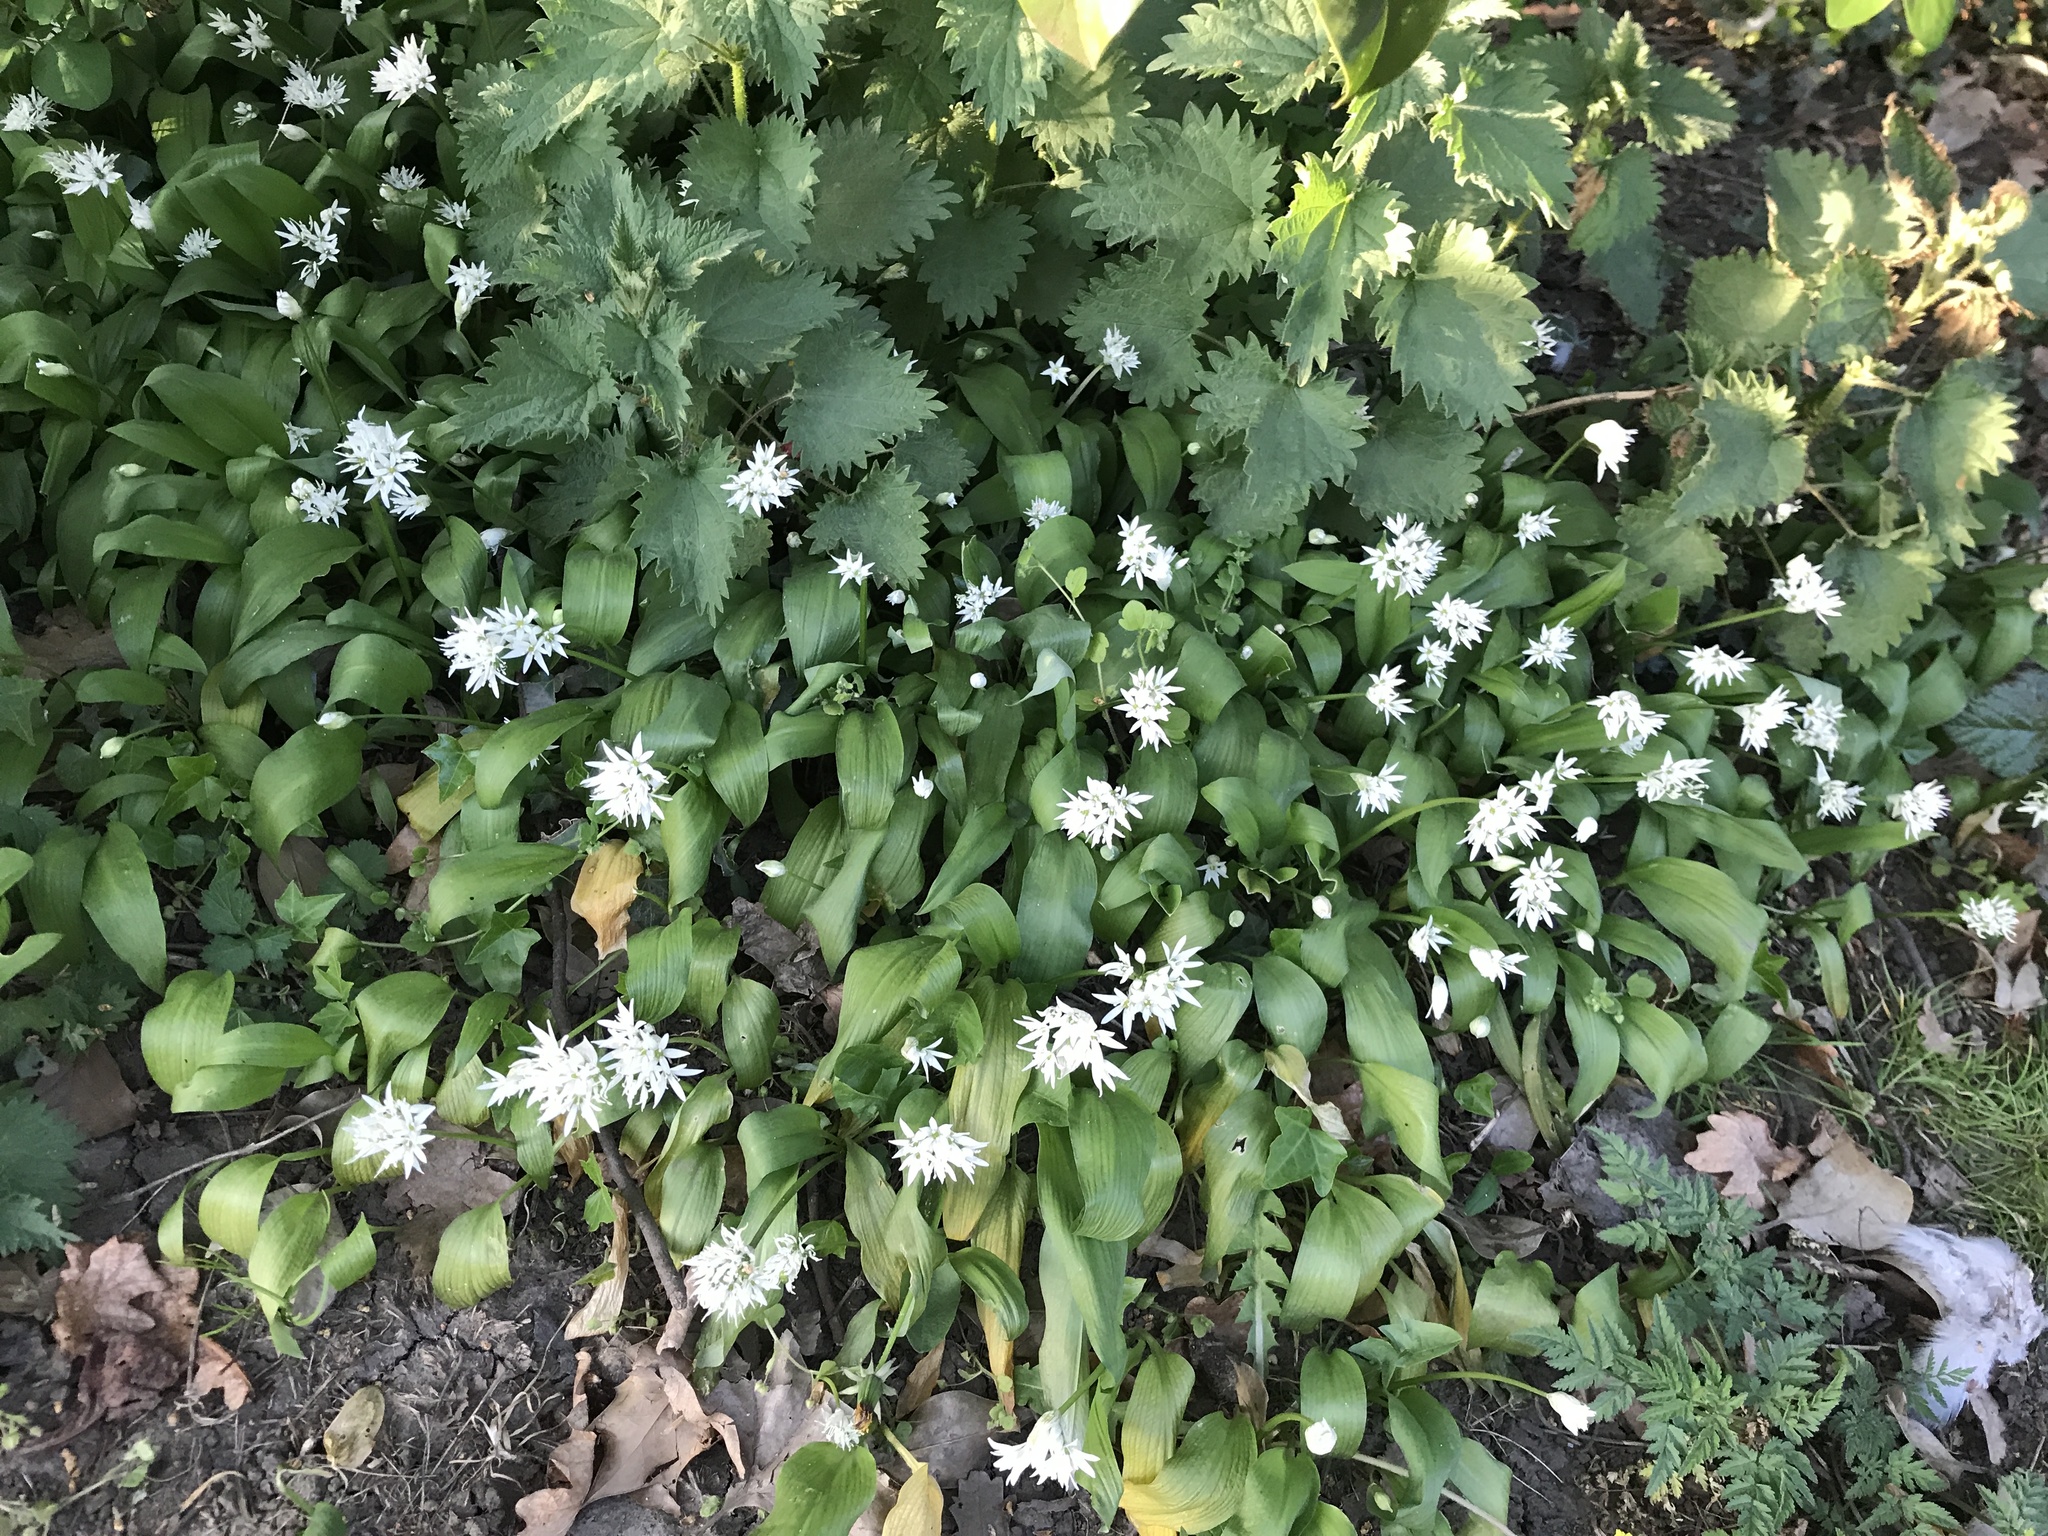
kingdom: Plantae
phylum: Tracheophyta
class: Liliopsida
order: Asparagales
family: Amaryllidaceae
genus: Allium
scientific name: Allium ursinum
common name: Ramsons
